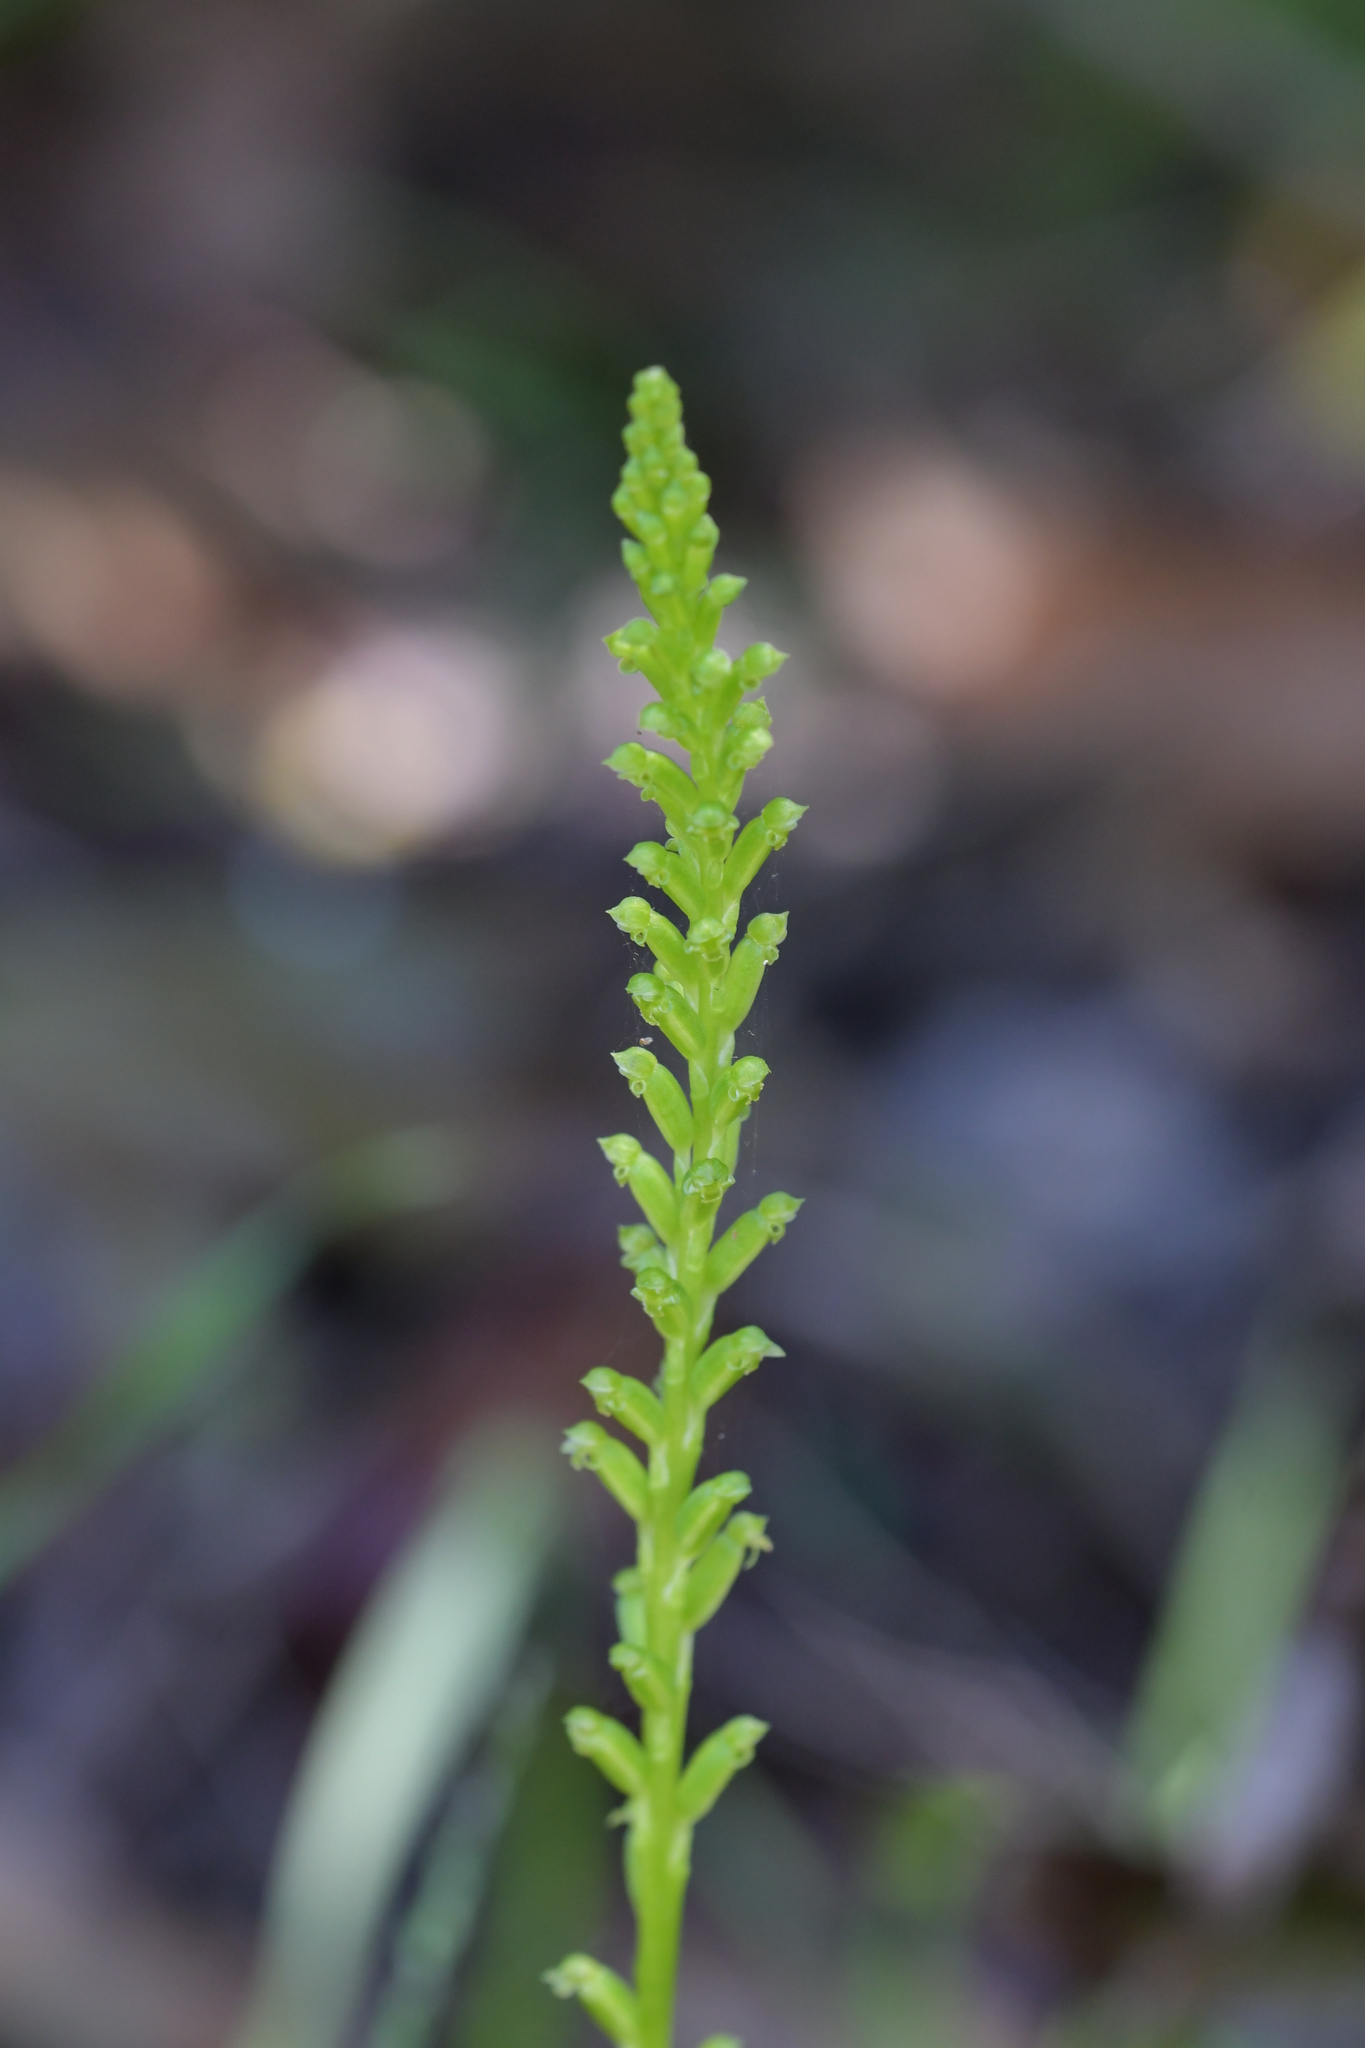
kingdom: Plantae
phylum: Tracheophyta
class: Liliopsida
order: Asparagales
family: Orchidaceae
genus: Microtis
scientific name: Microtis unifolia
